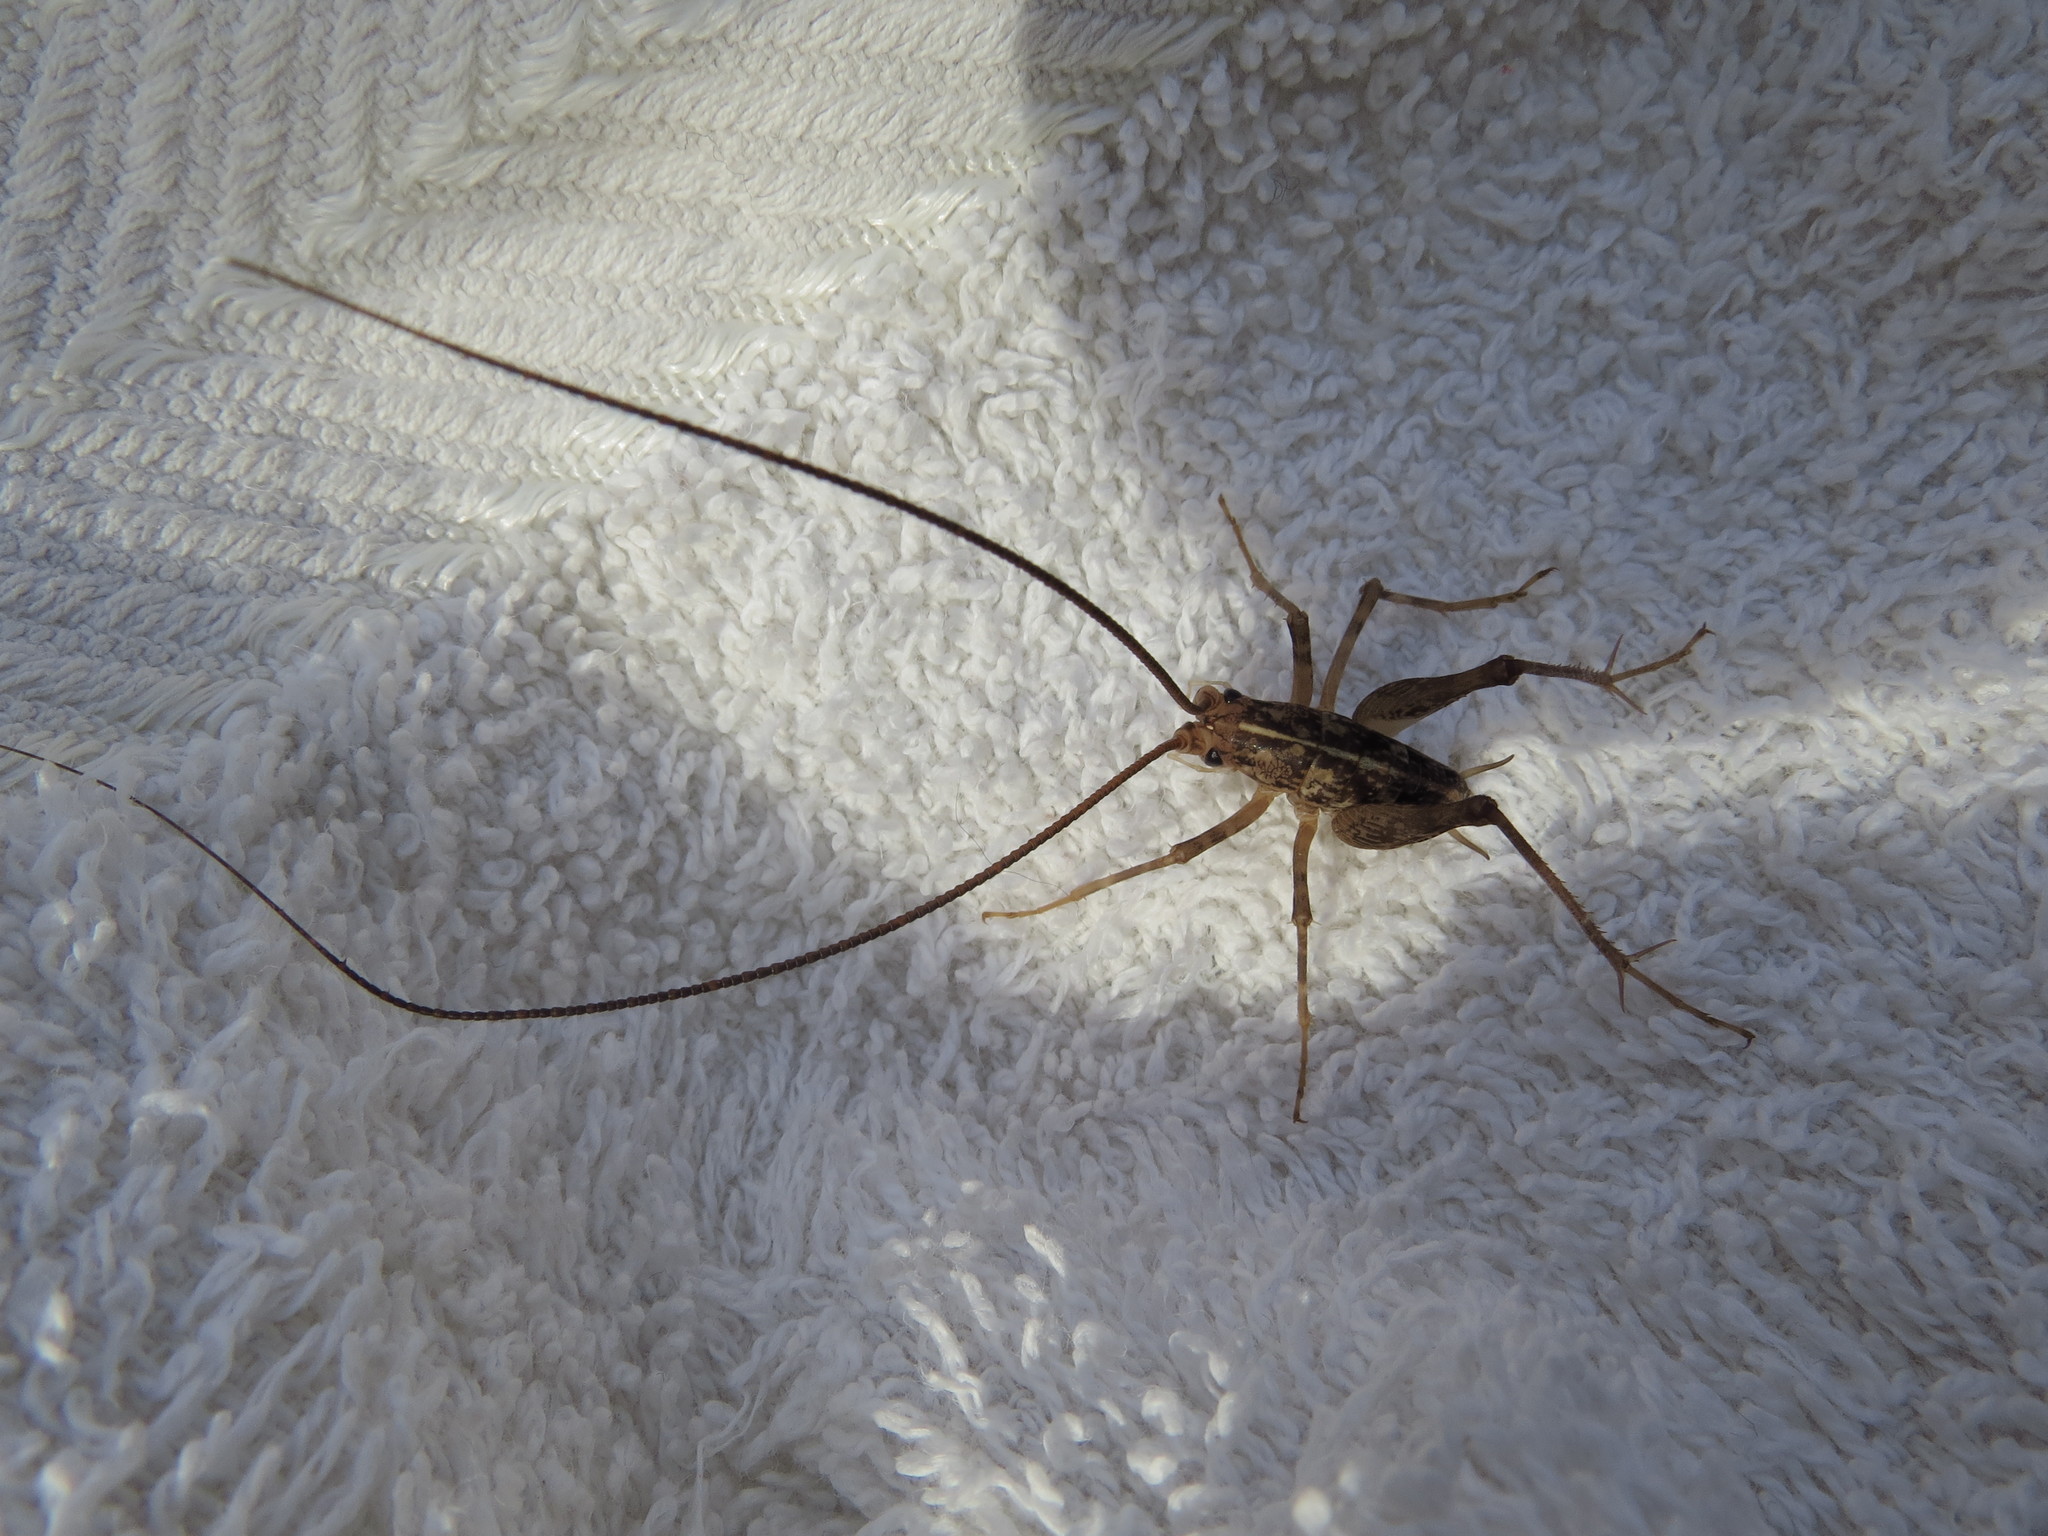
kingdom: Animalia
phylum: Arthropoda
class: Insecta
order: Orthoptera
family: Rhaphidophoridae
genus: Pleioplectron
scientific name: Pleioplectron simplex
